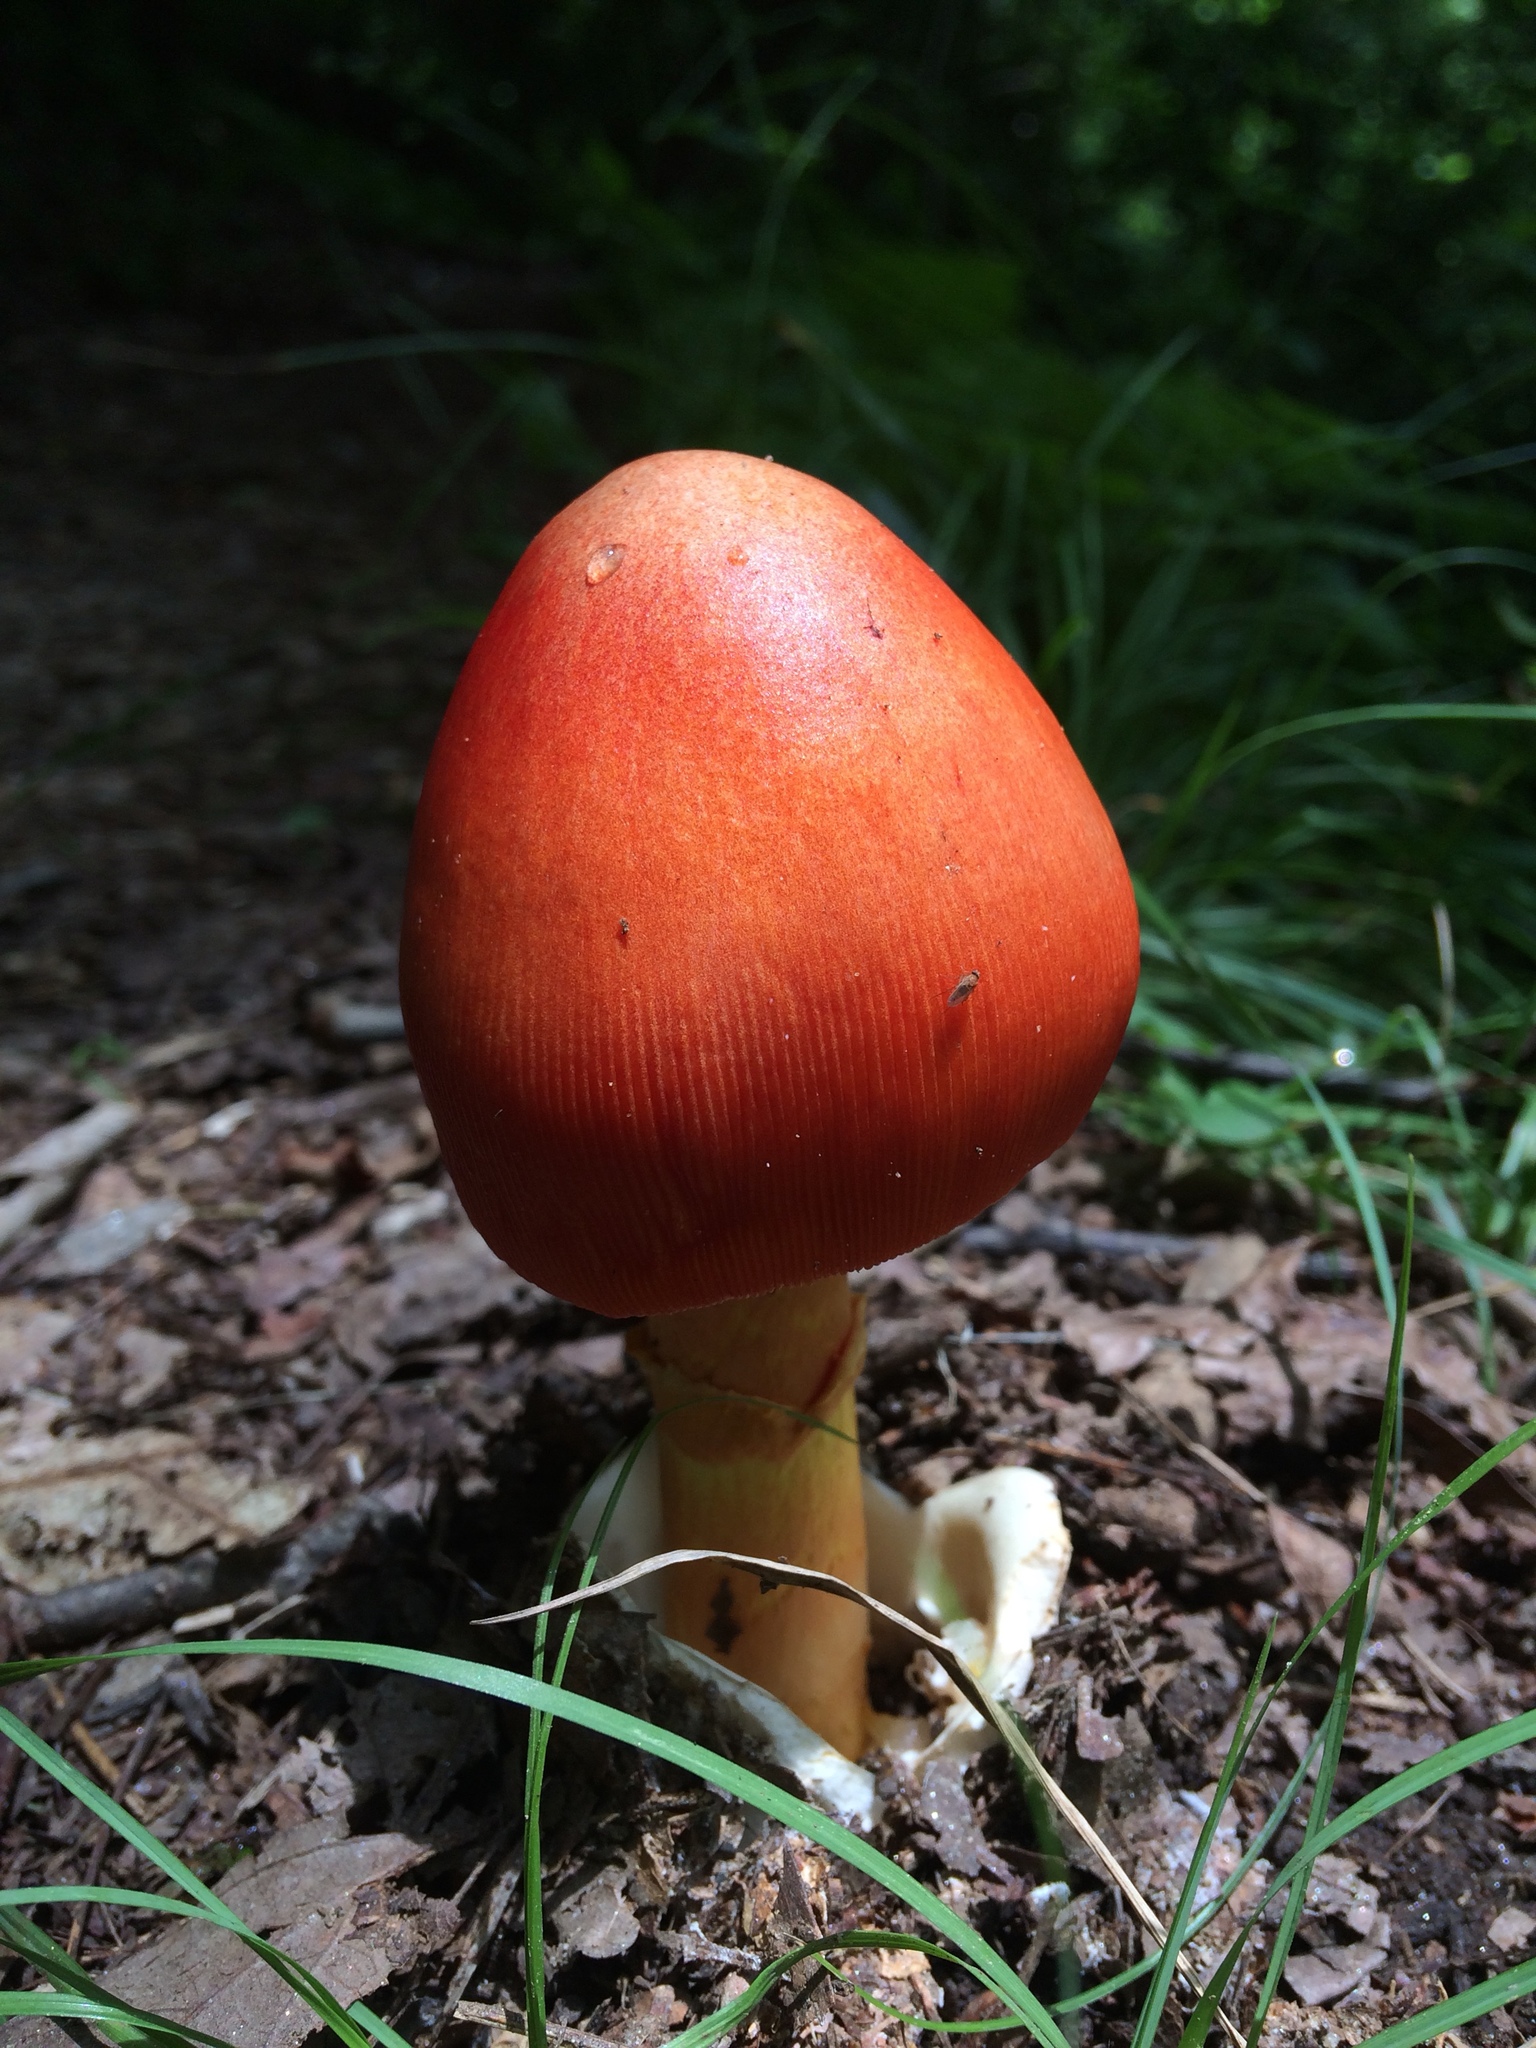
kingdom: Fungi
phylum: Basidiomycota
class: Agaricomycetes
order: Agaricales
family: Amanitaceae
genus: Amanita
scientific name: Amanita jacksonii
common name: Jackson's slender caesar
